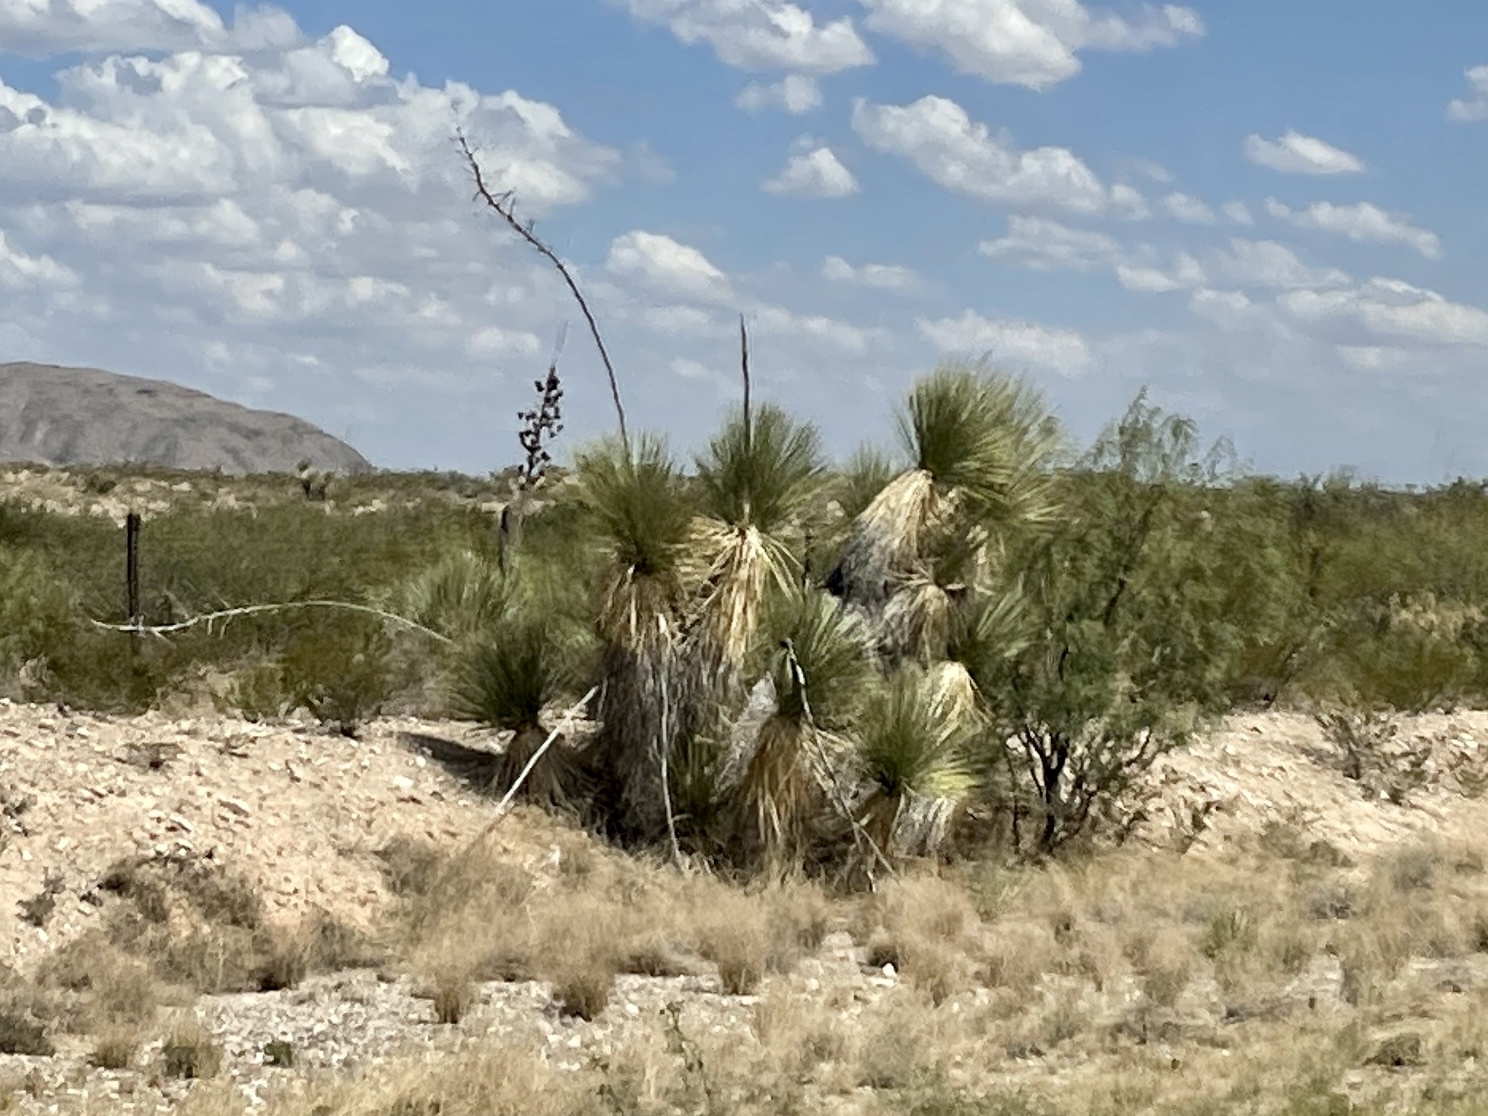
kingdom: Plantae
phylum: Tracheophyta
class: Liliopsida
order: Asparagales
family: Asparagaceae
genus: Yucca
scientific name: Yucca elata
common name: Palmella
